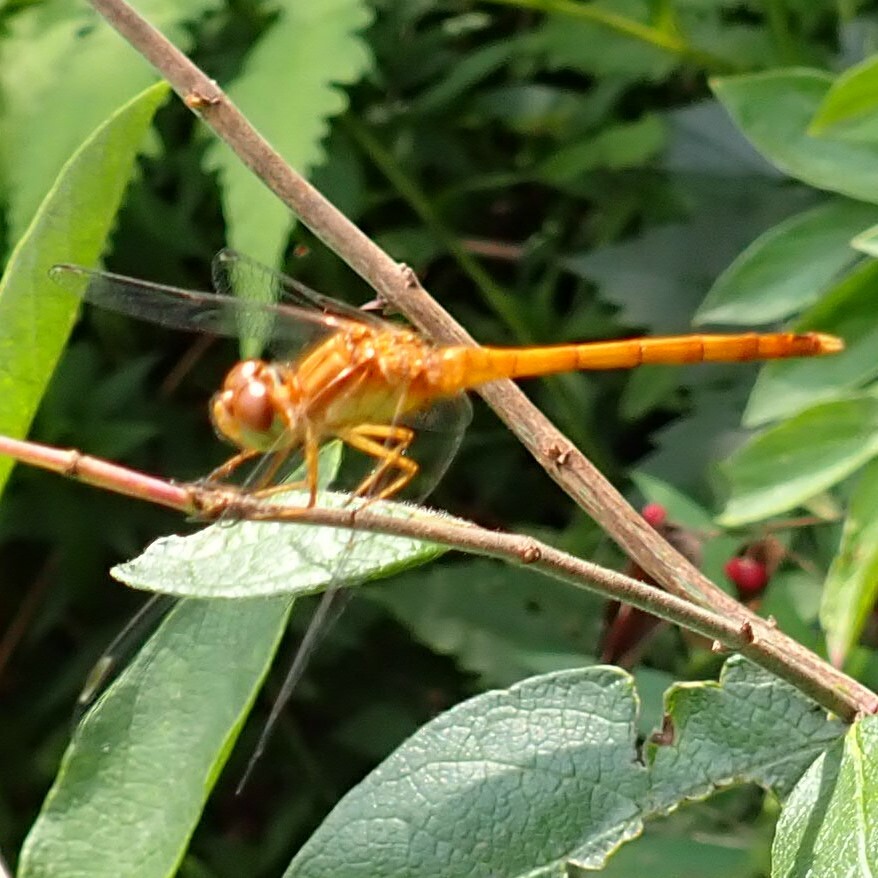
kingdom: Animalia
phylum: Arthropoda
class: Insecta
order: Odonata
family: Libellulidae
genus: Sympetrum
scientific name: Sympetrum vicinum
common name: Autumn meadowhawk
